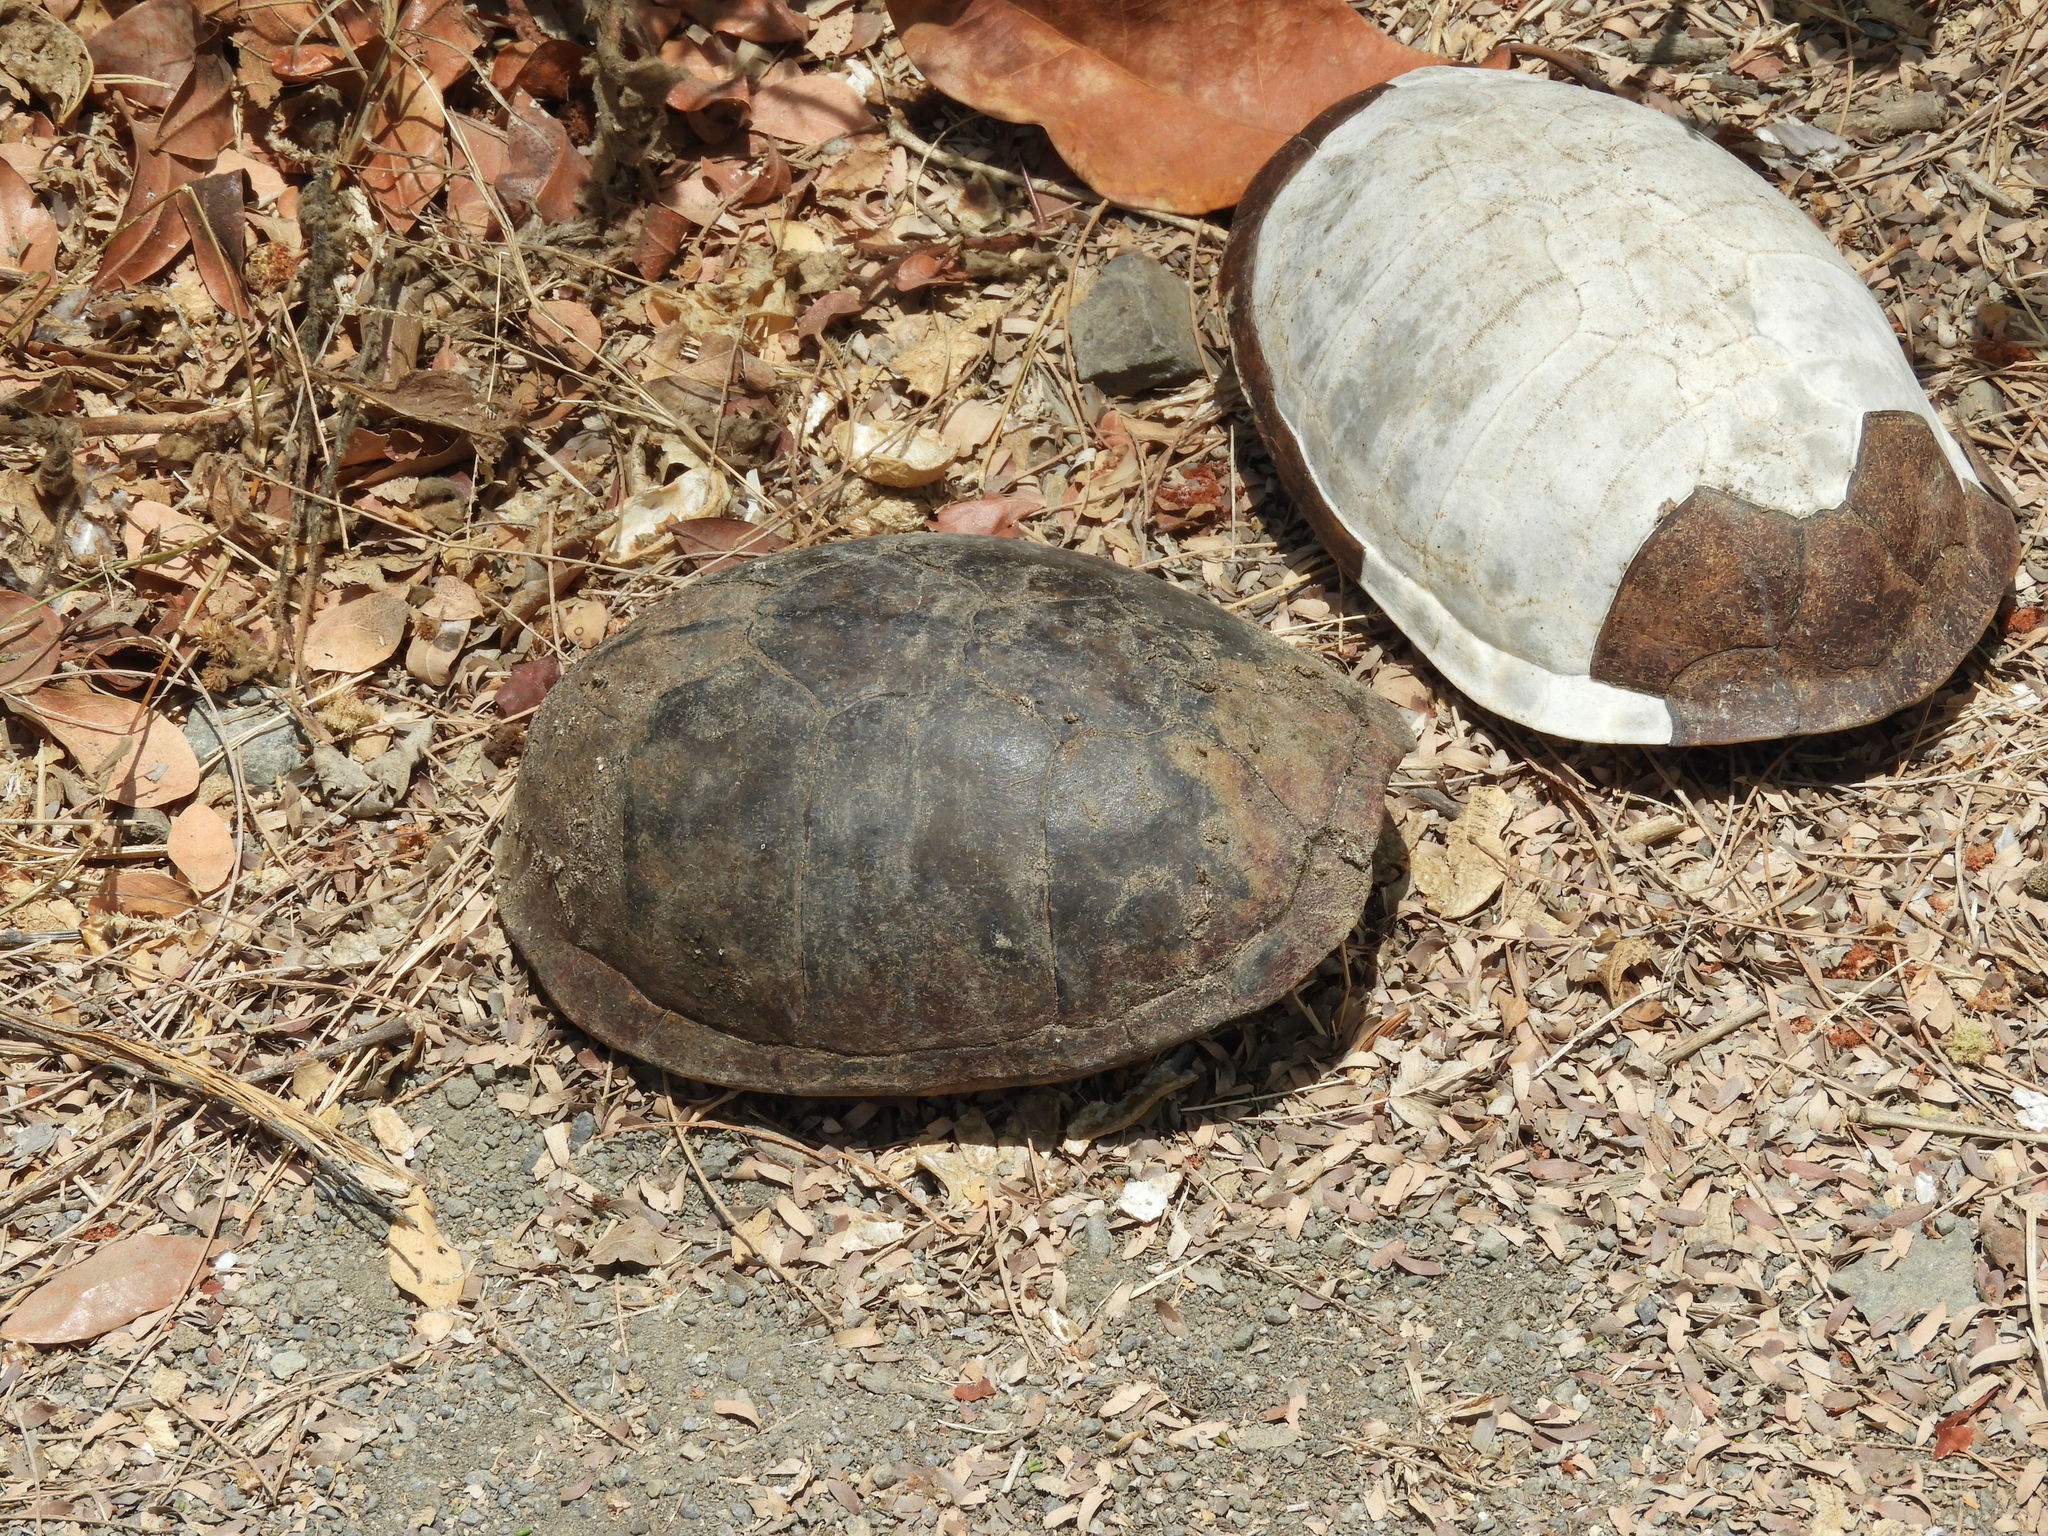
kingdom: Animalia
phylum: Chordata
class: Testudines
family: Kinosternidae
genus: Kinosternon
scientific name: Kinosternon integrum
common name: Mexican mud turtle
